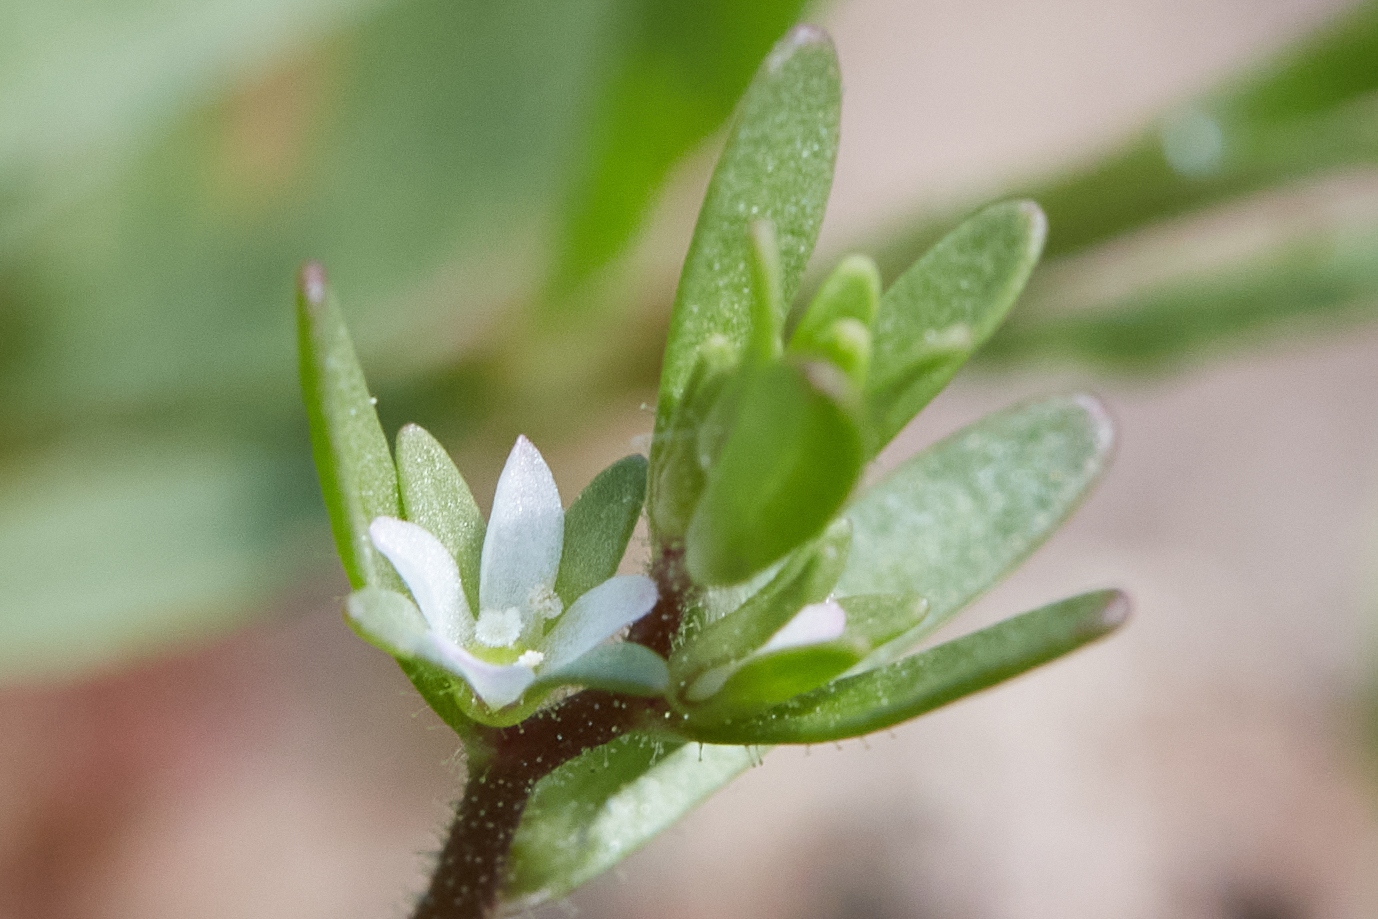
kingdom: Plantae
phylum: Tracheophyta
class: Magnoliopsida
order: Lamiales
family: Plantaginaceae
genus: Veronica
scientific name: Veronica peregrina
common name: Neckweed
